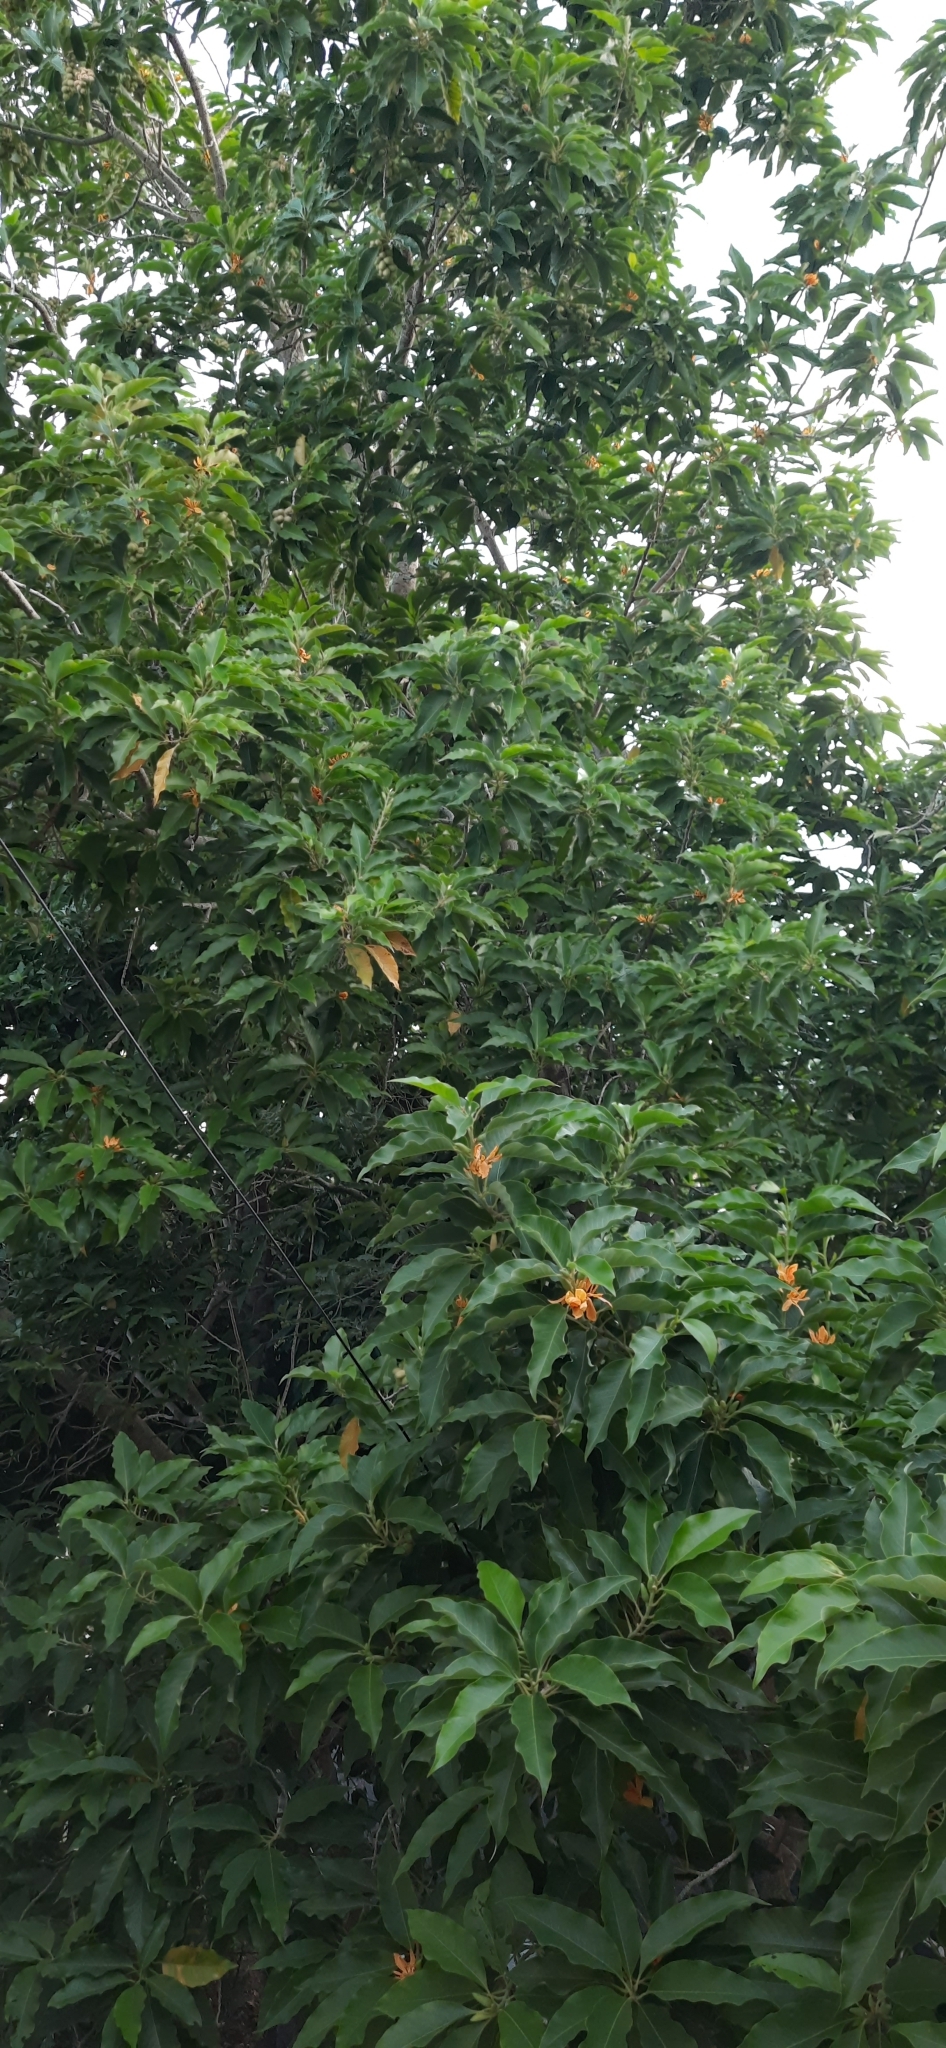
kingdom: Plantae
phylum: Tracheophyta
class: Magnoliopsida
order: Magnoliales
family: Magnoliaceae
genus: Magnolia
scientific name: Magnolia champaca
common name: Champak
